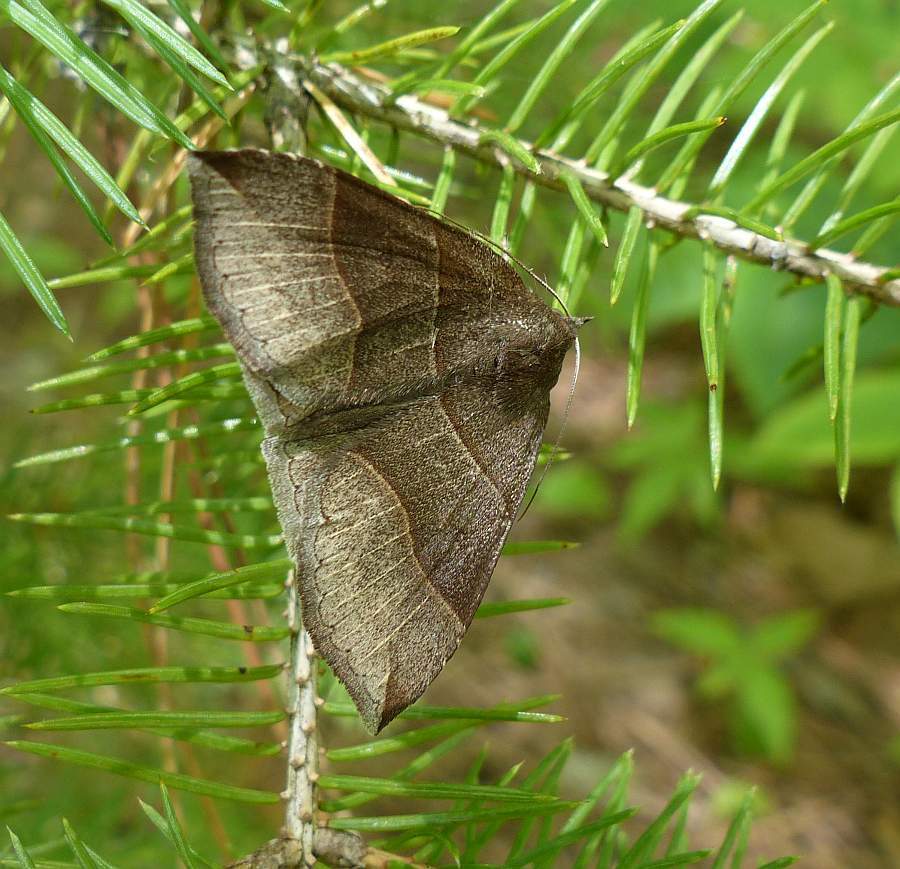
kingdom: Animalia
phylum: Arthropoda
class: Insecta
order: Lepidoptera
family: Erebidae
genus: Parallelia
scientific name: Parallelia bistriaris
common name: Maple looper moth
